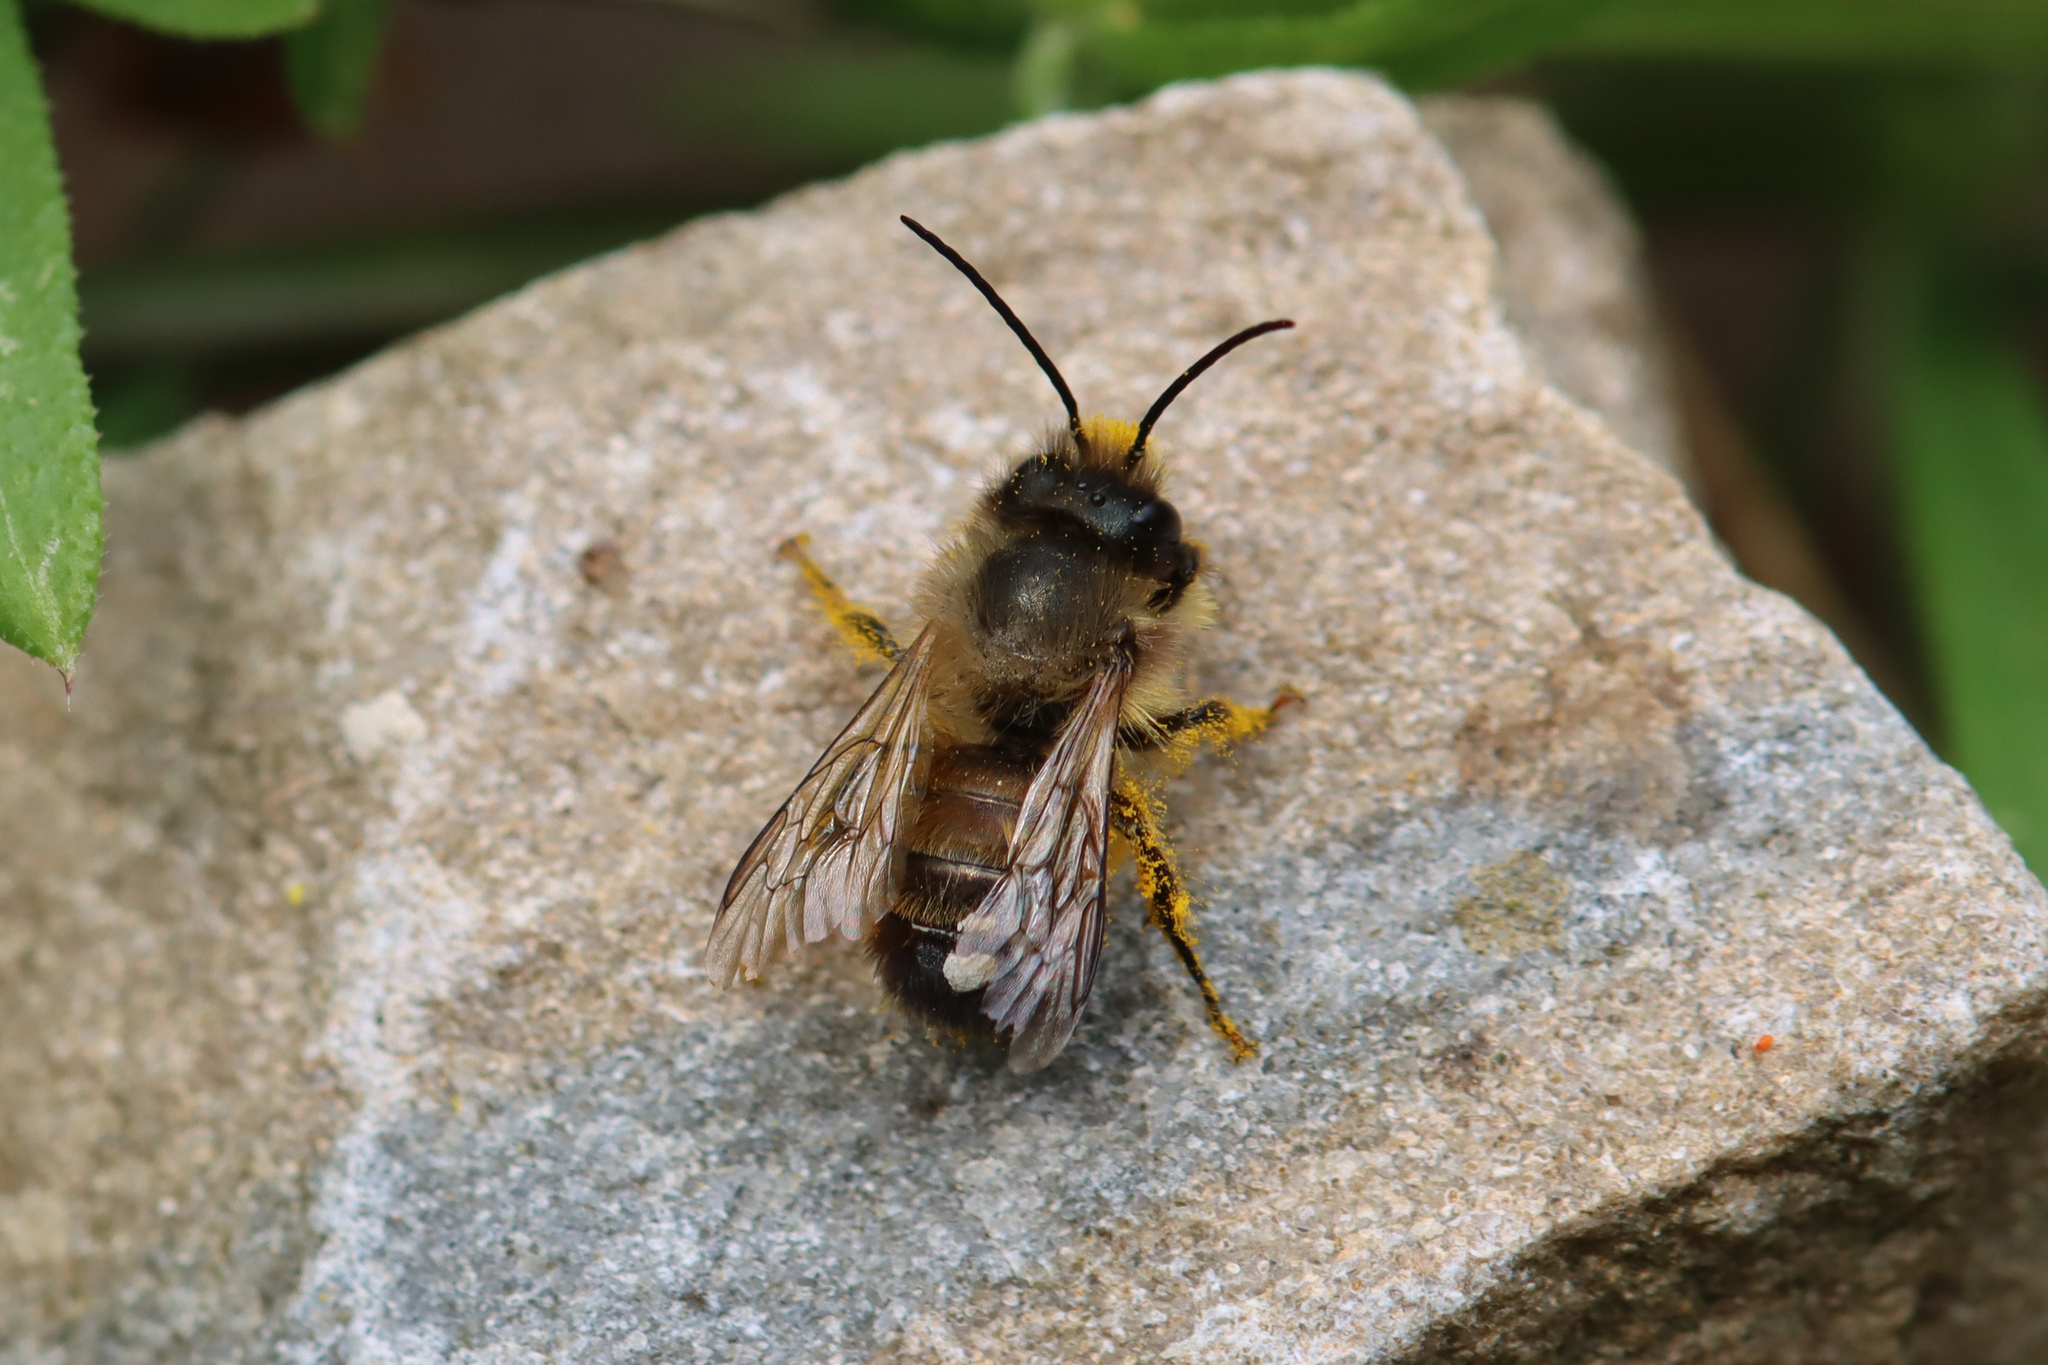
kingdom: Animalia
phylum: Arthropoda
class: Insecta
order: Hymenoptera
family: Megachilidae
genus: Osmia
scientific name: Osmia bicornis
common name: Red mason bee
